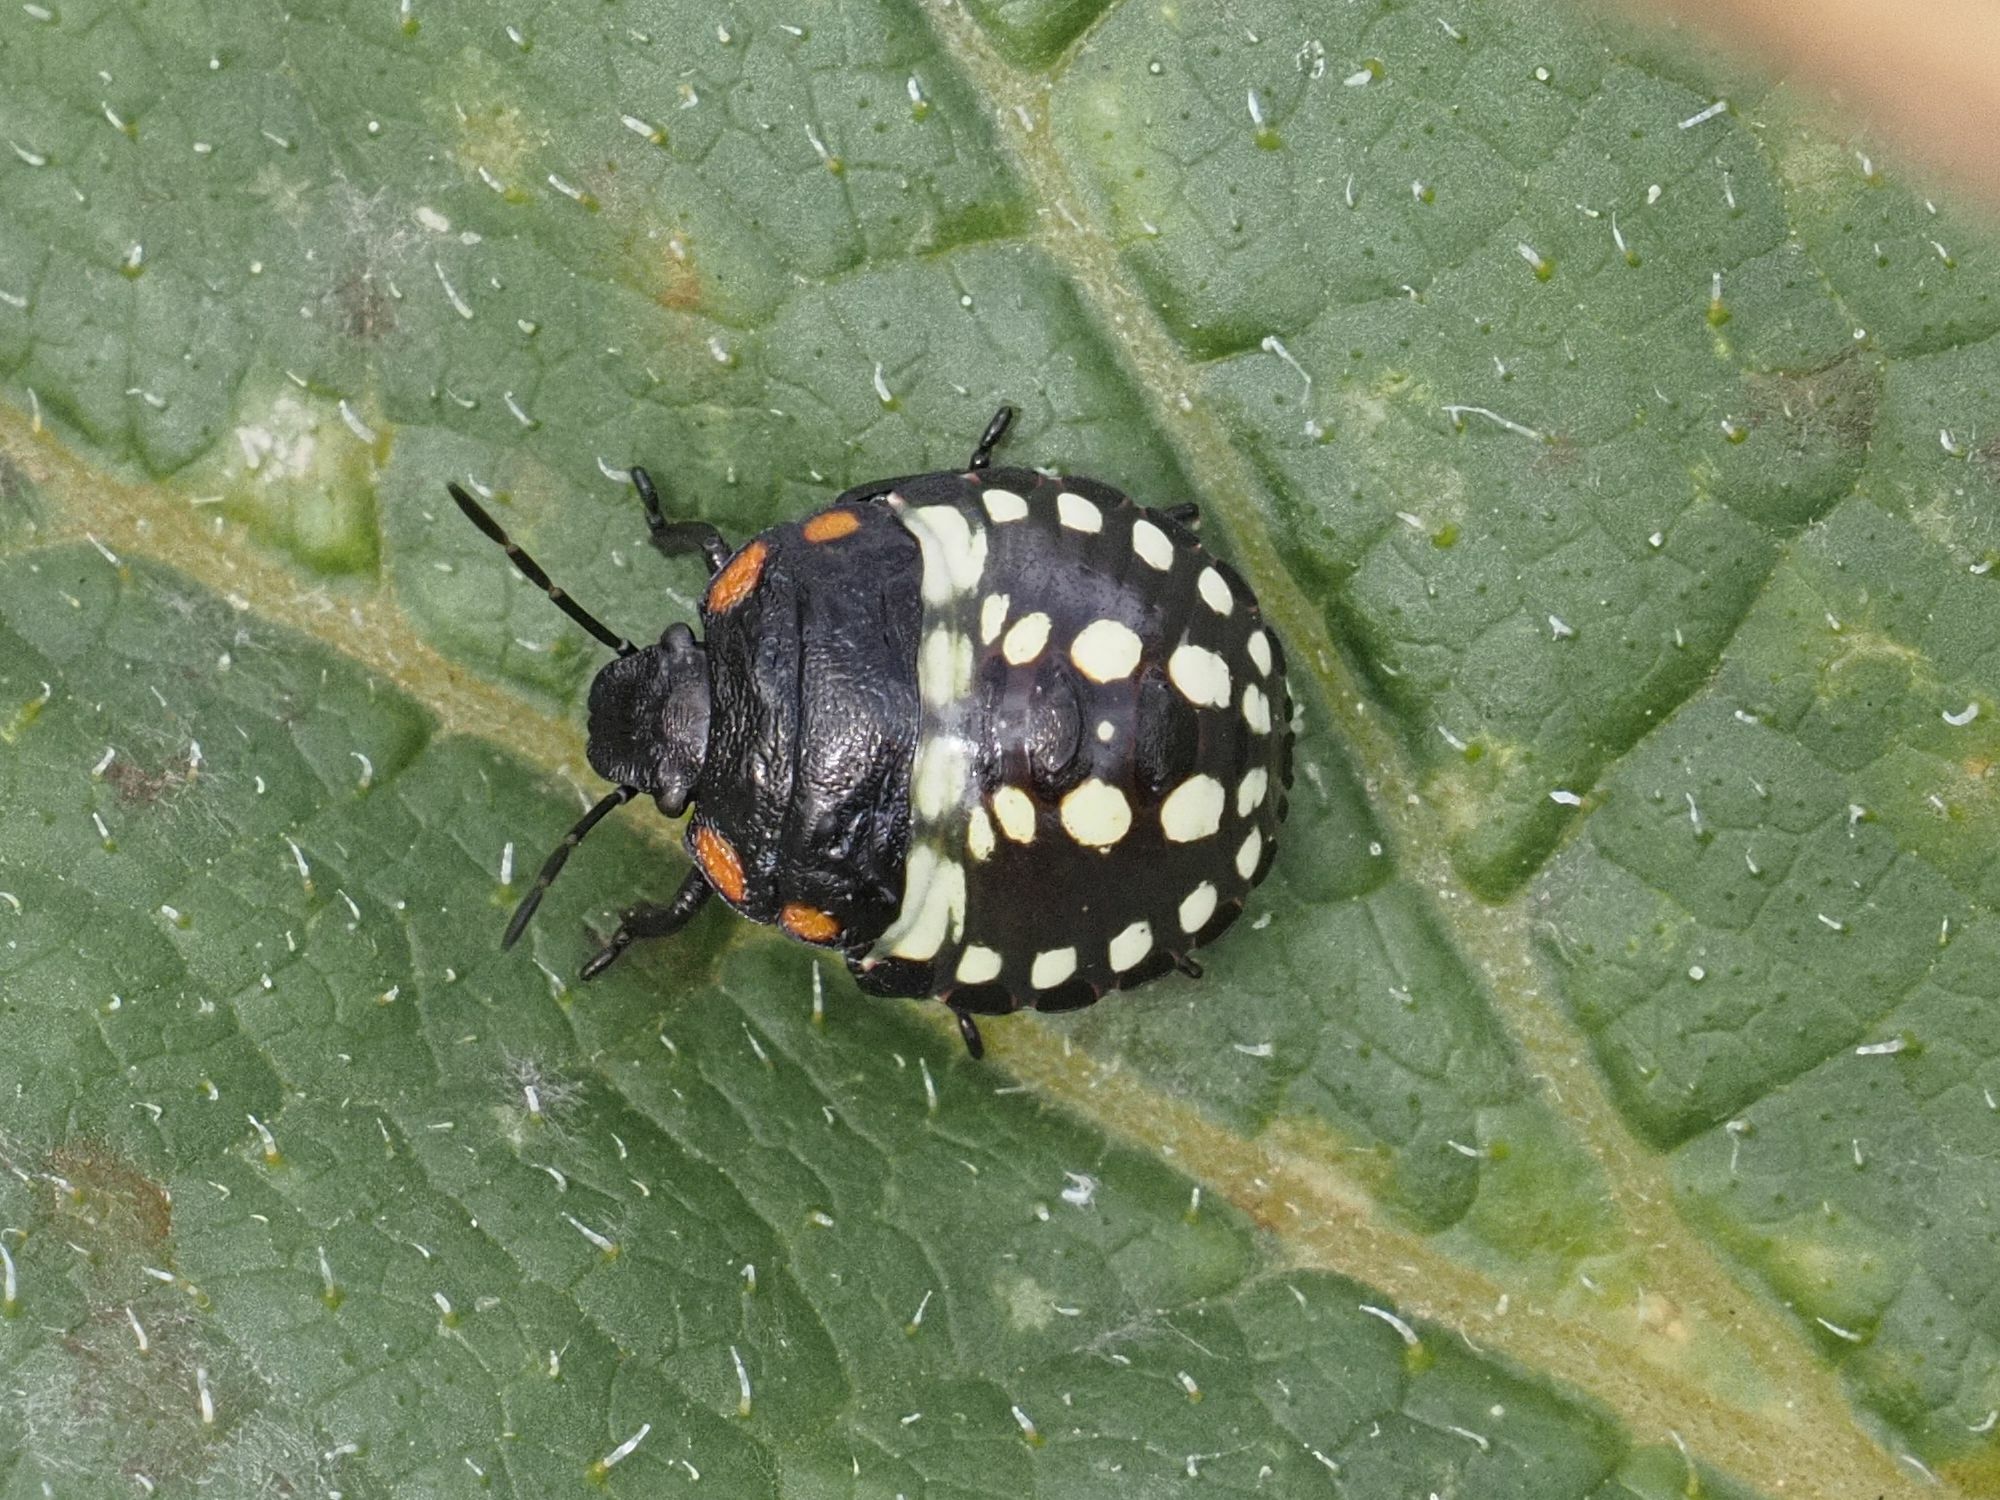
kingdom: Animalia
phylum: Arthropoda
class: Insecta
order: Hemiptera
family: Pentatomidae
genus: Nezara
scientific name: Nezara viridula
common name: Southern green stink bug
